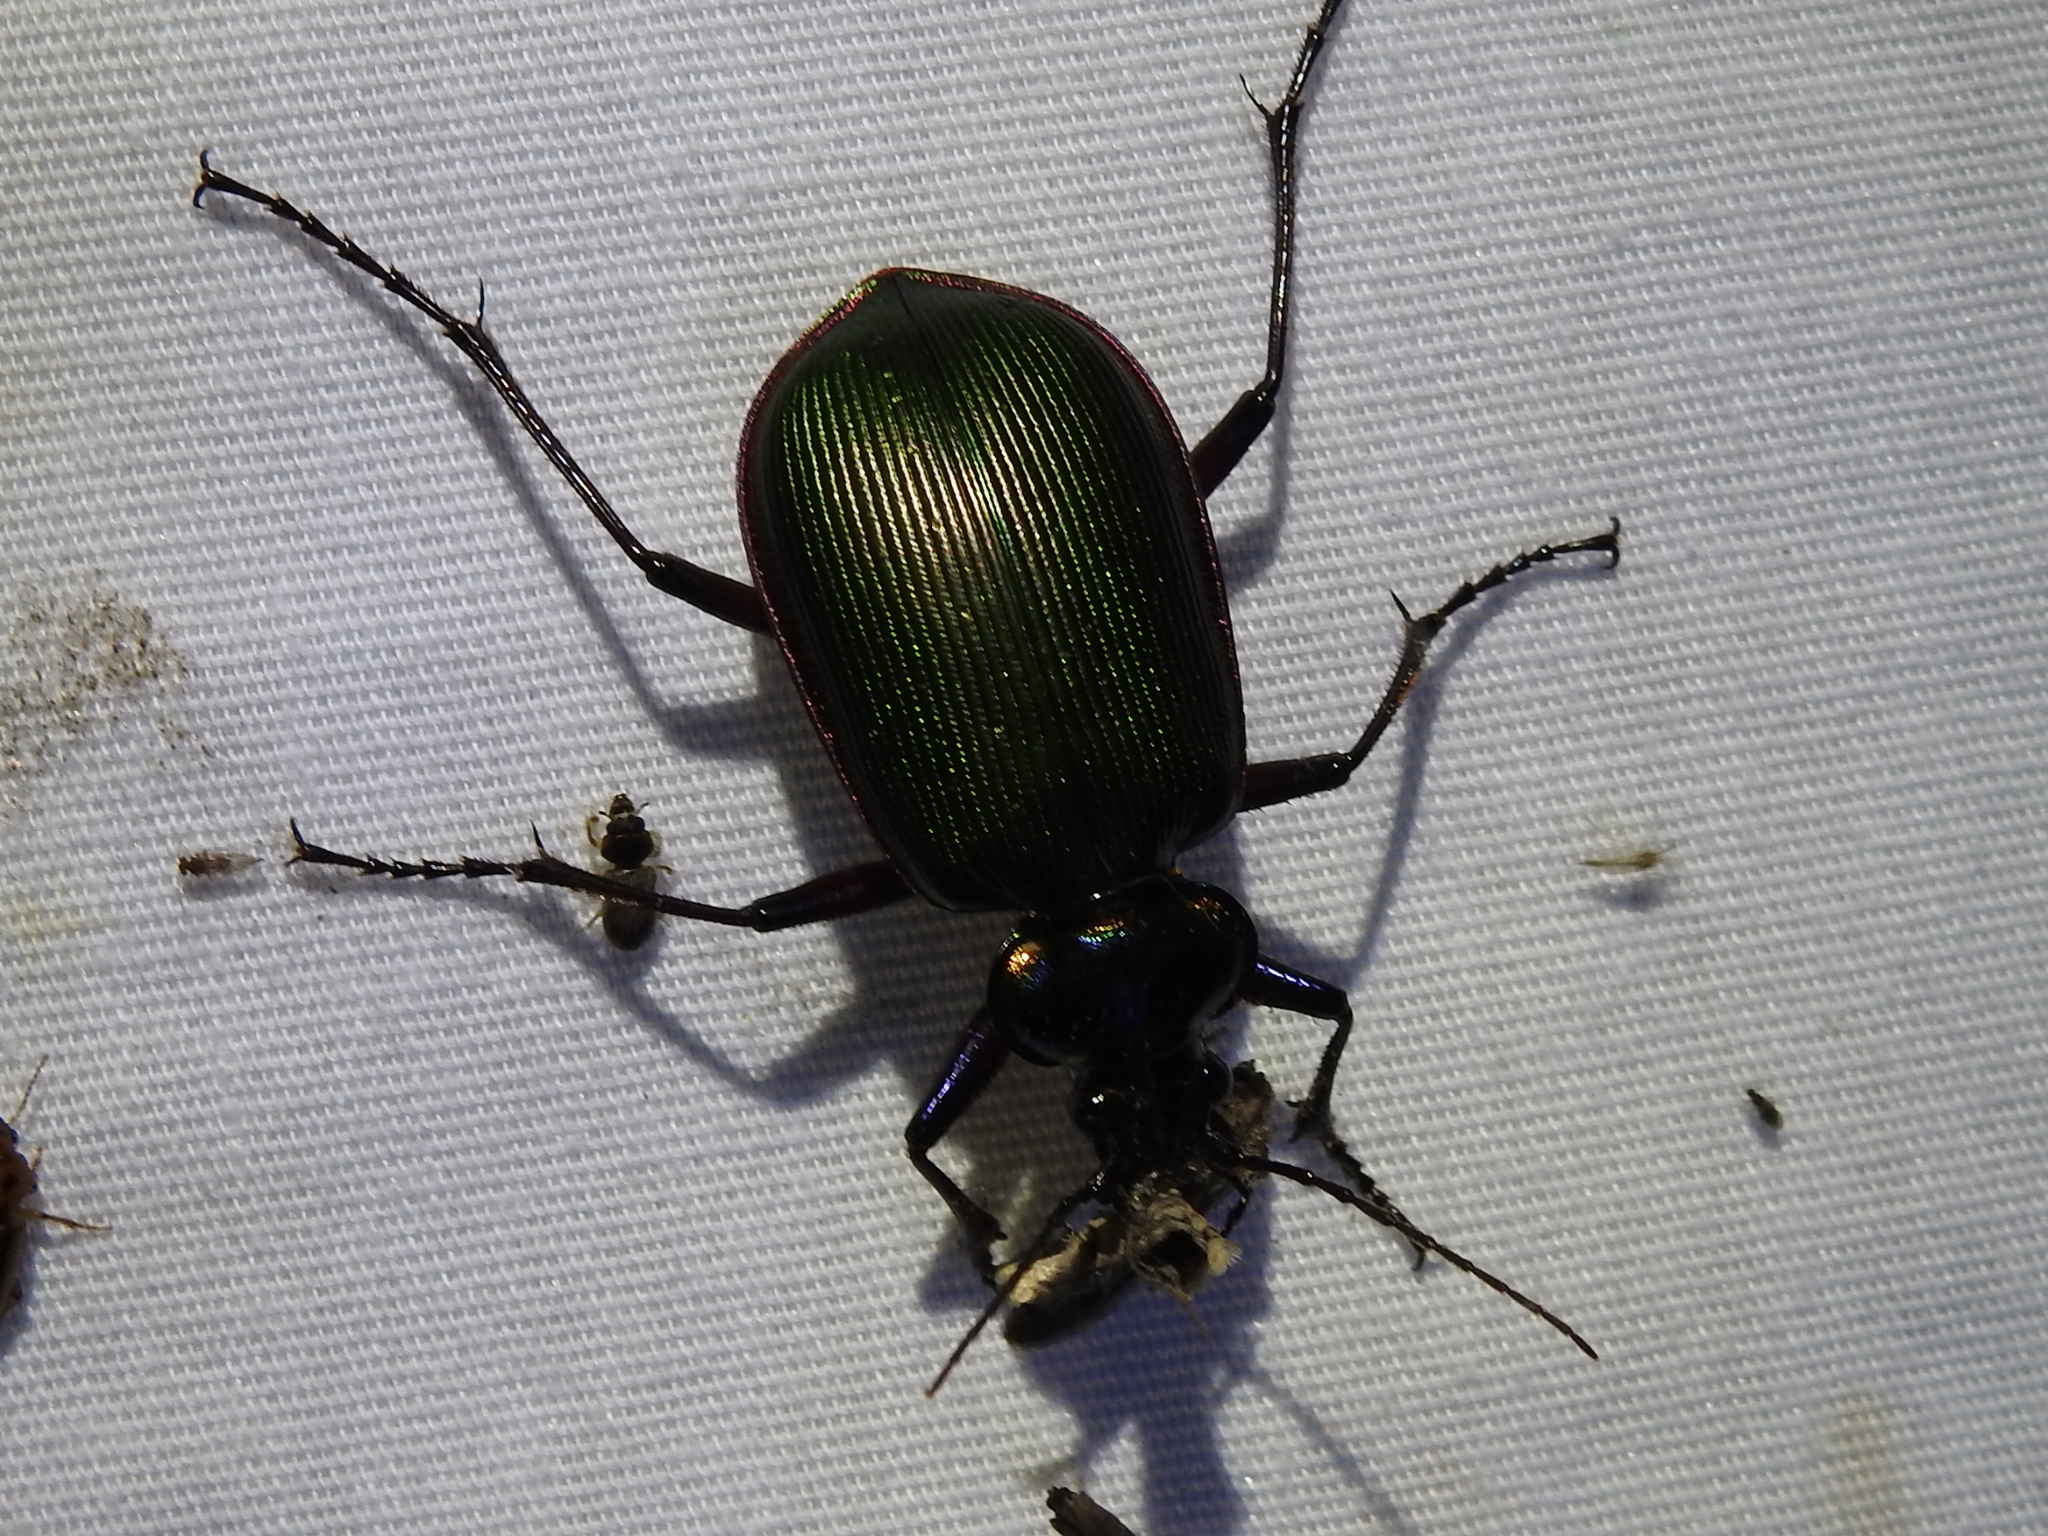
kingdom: Animalia
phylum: Arthropoda
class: Insecta
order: Coleoptera
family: Carabidae
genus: Calosoma
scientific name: Calosoma scrutator
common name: Fiery searcher beetle
